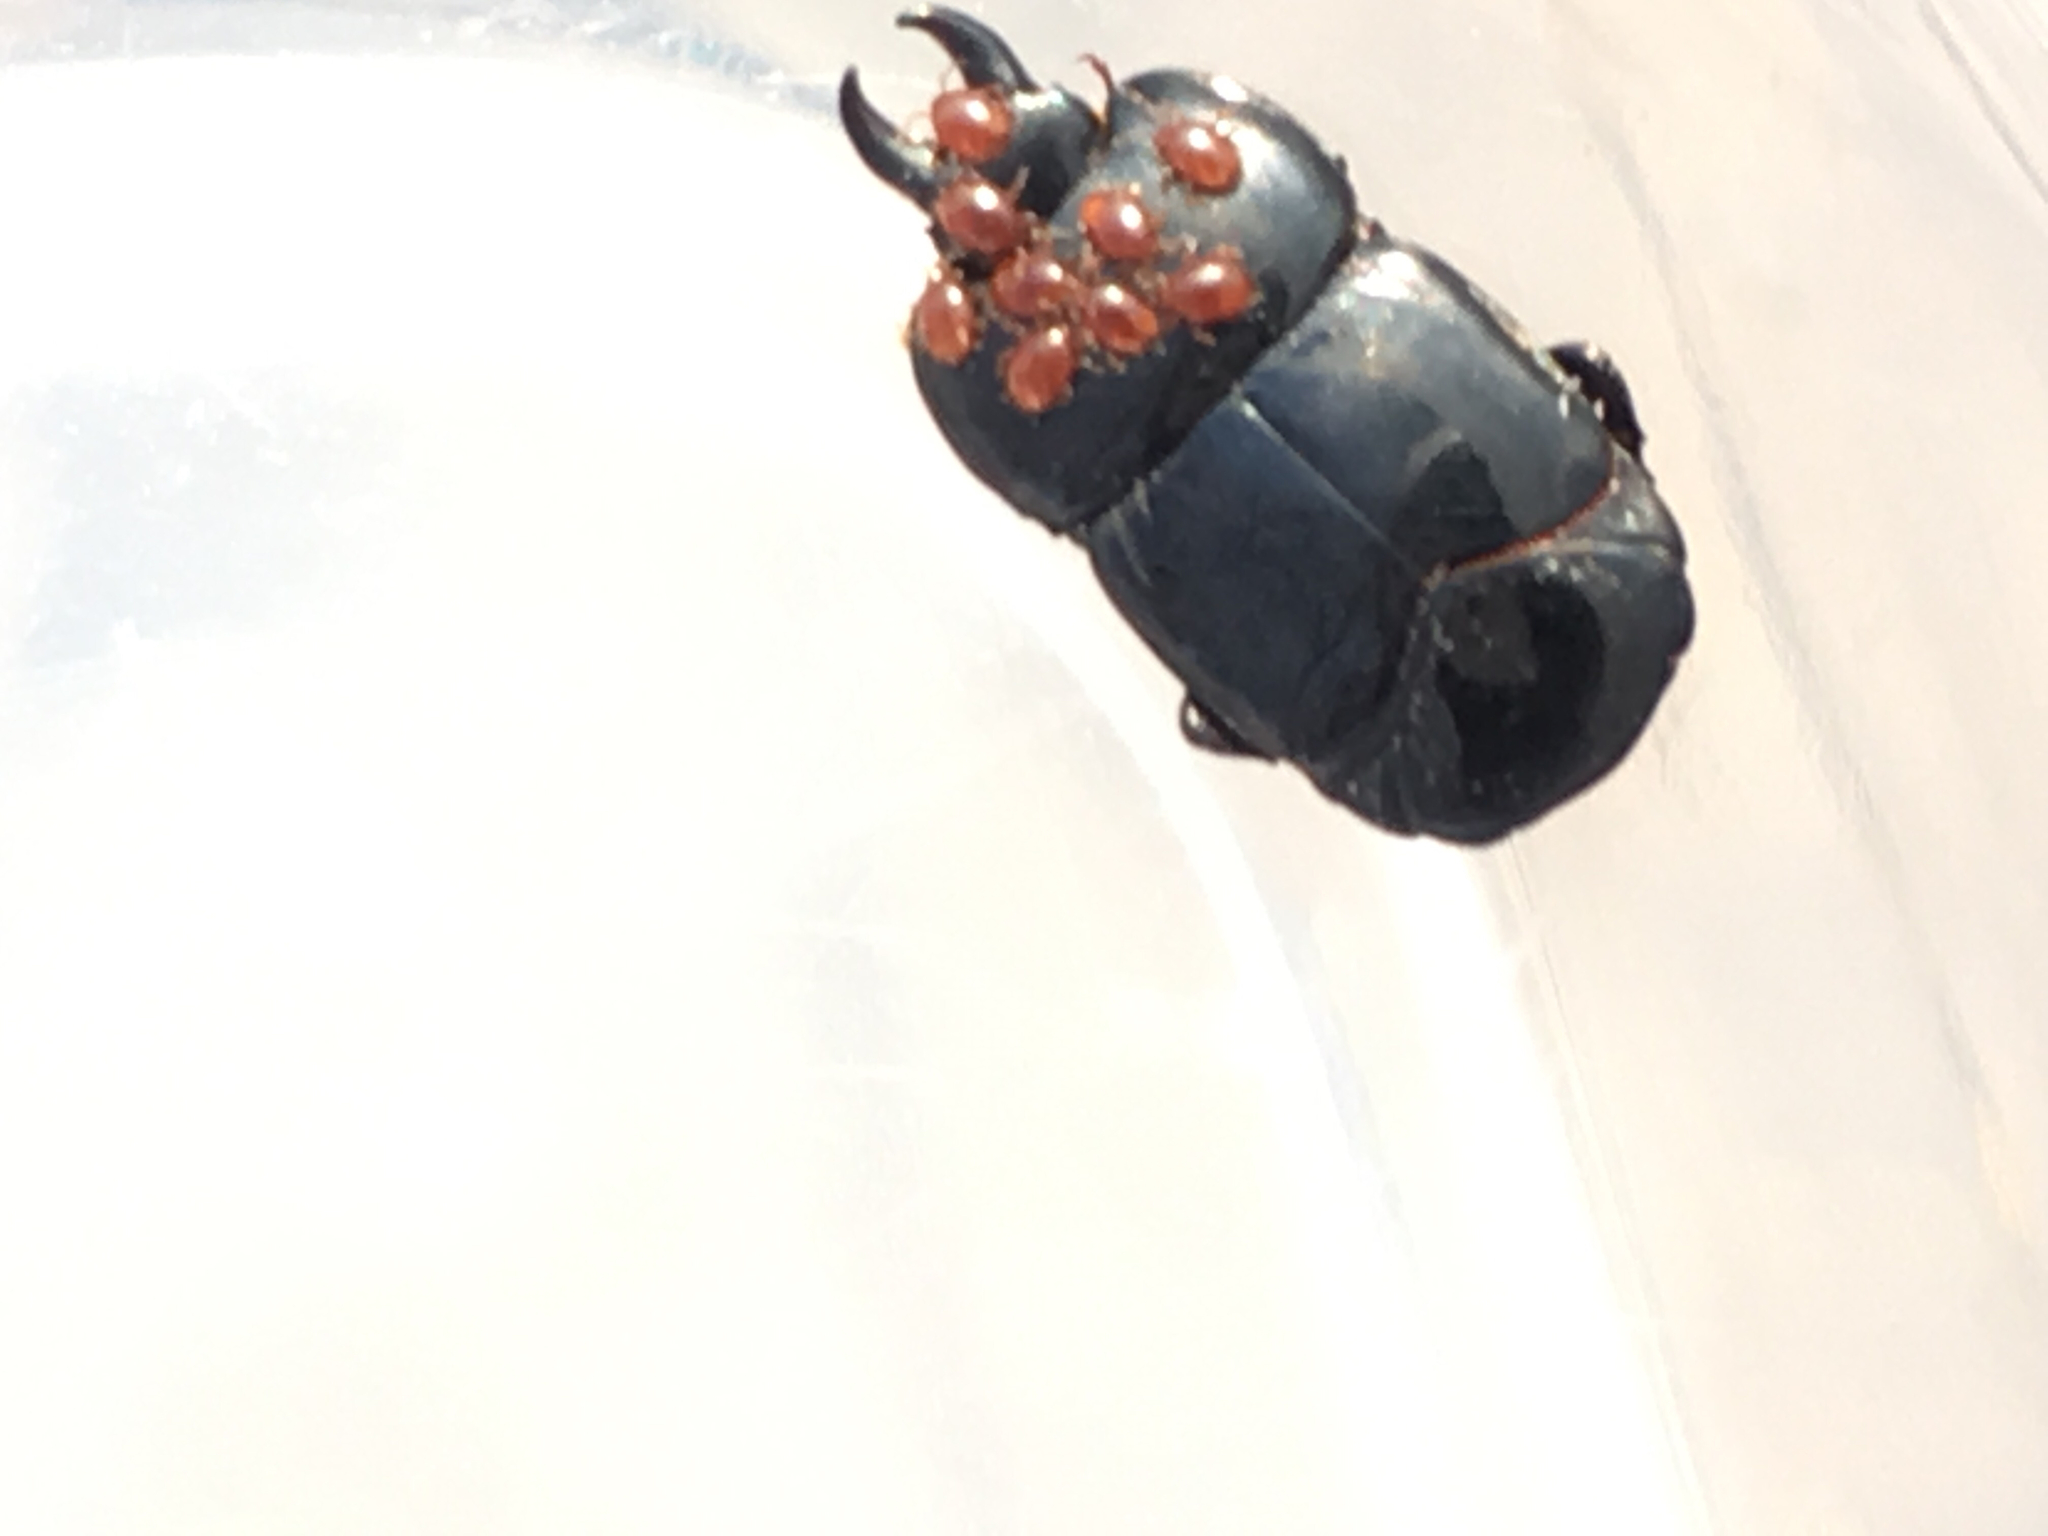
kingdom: Animalia
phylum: Arthropoda
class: Insecta
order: Coleoptera
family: Histeridae
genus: Hololepta
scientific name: Hololepta aequalis
